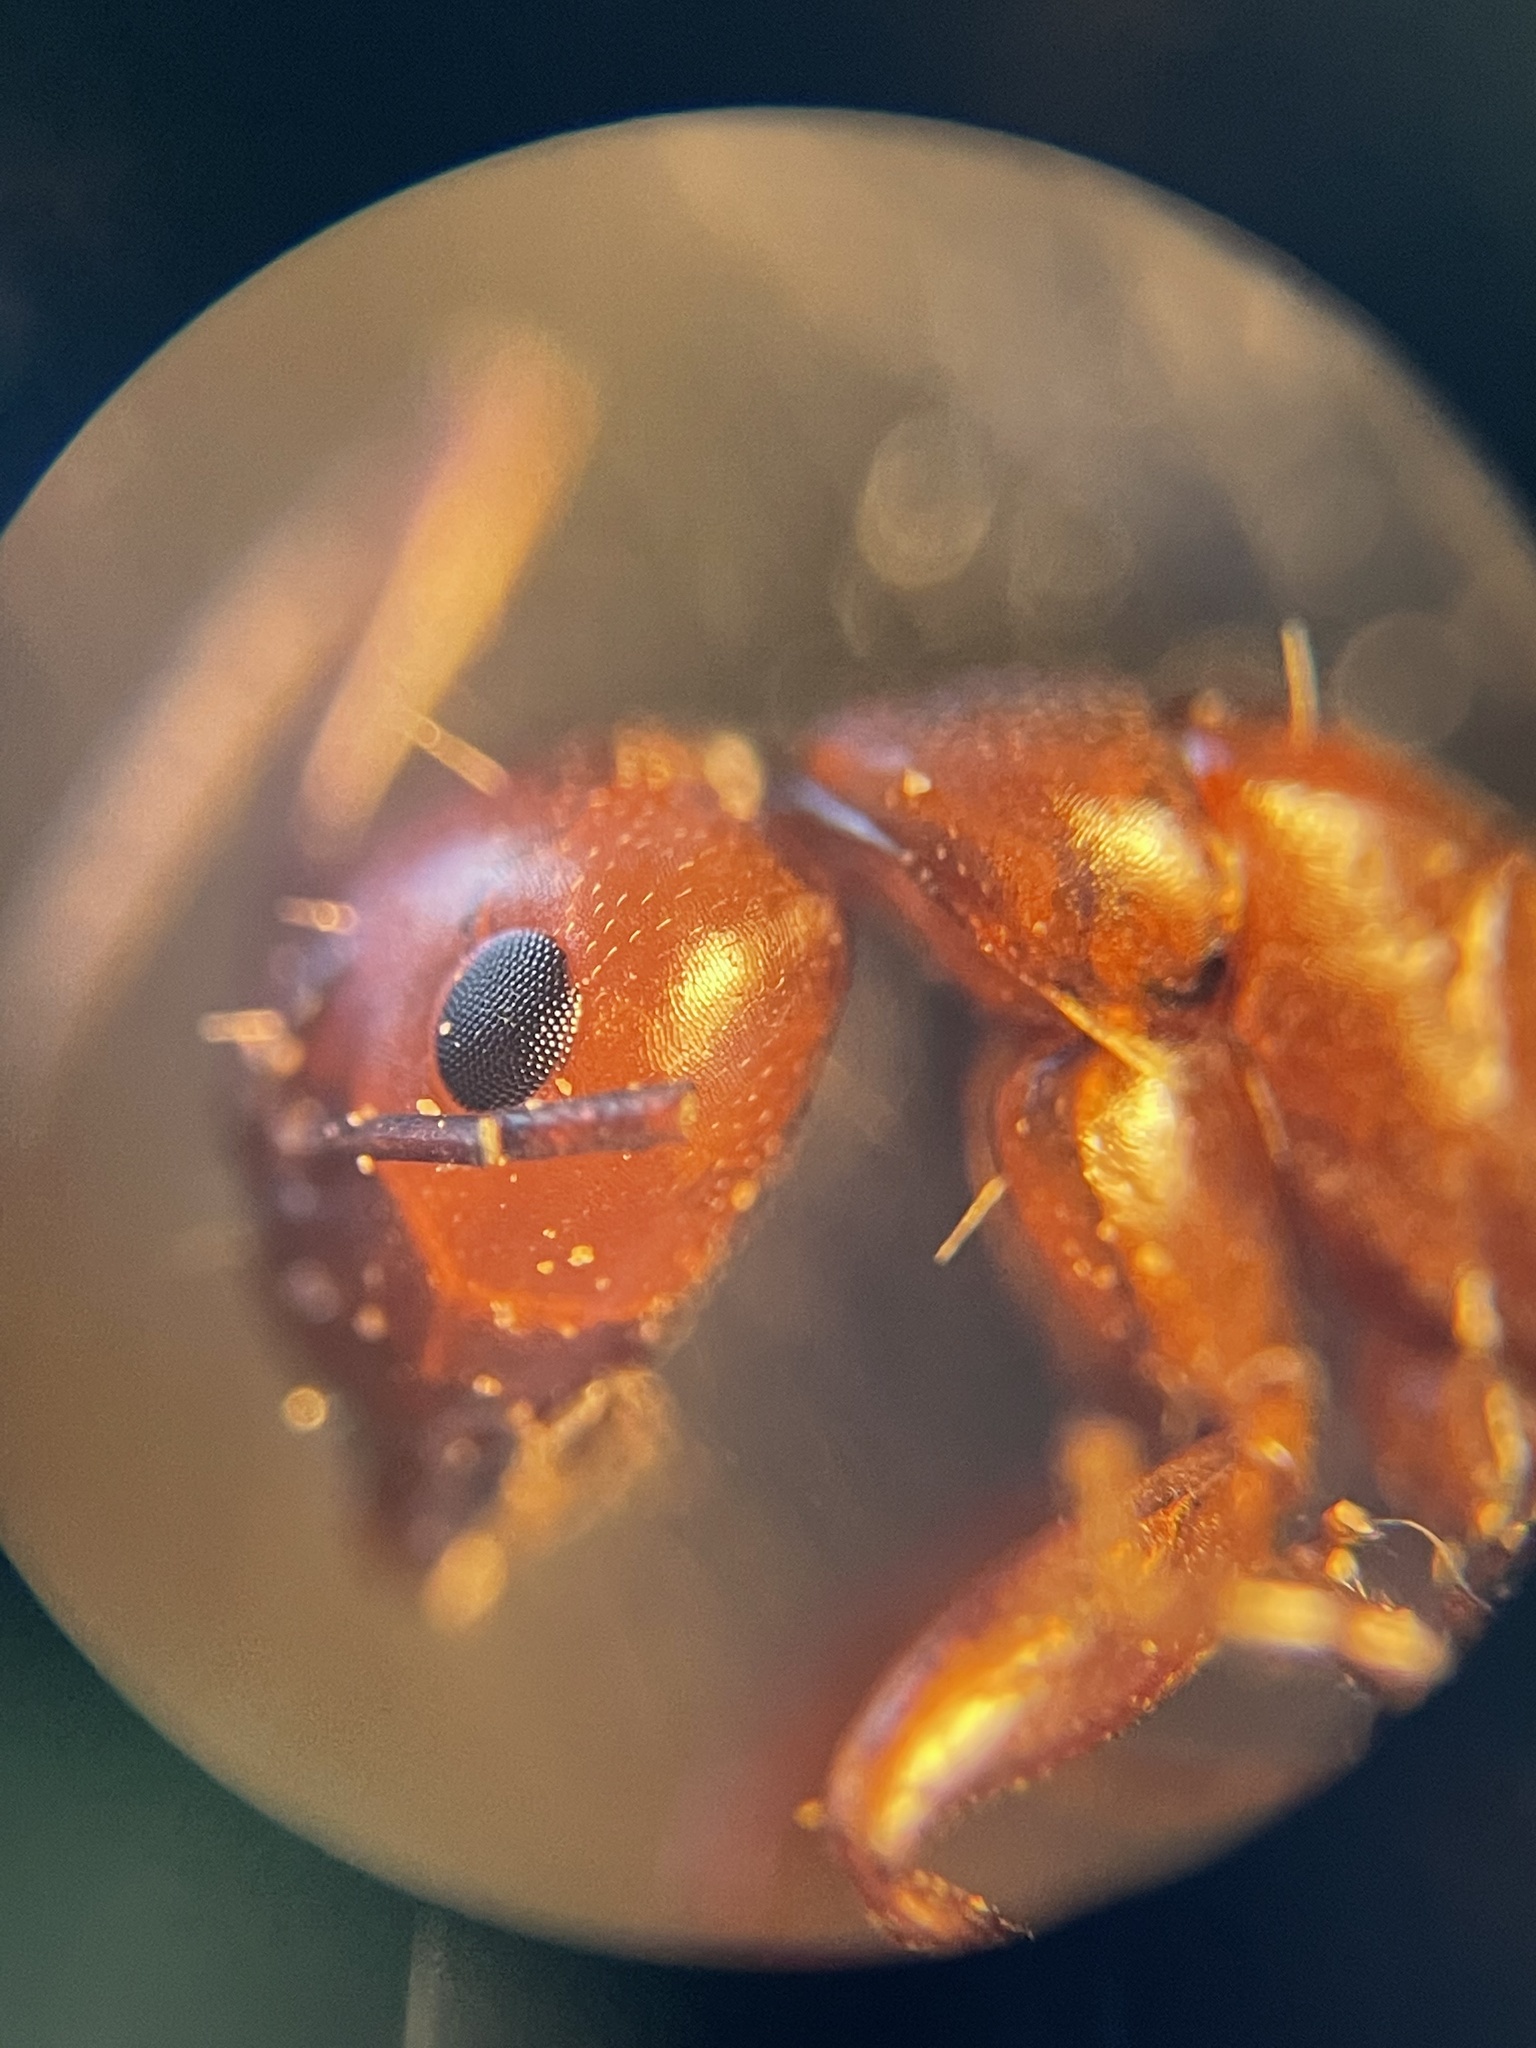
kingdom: Animalia
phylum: Arthropoda
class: Insecta
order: Hymenoptera
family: Formicidae
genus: Camponotus
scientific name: Camponotus decipiens
